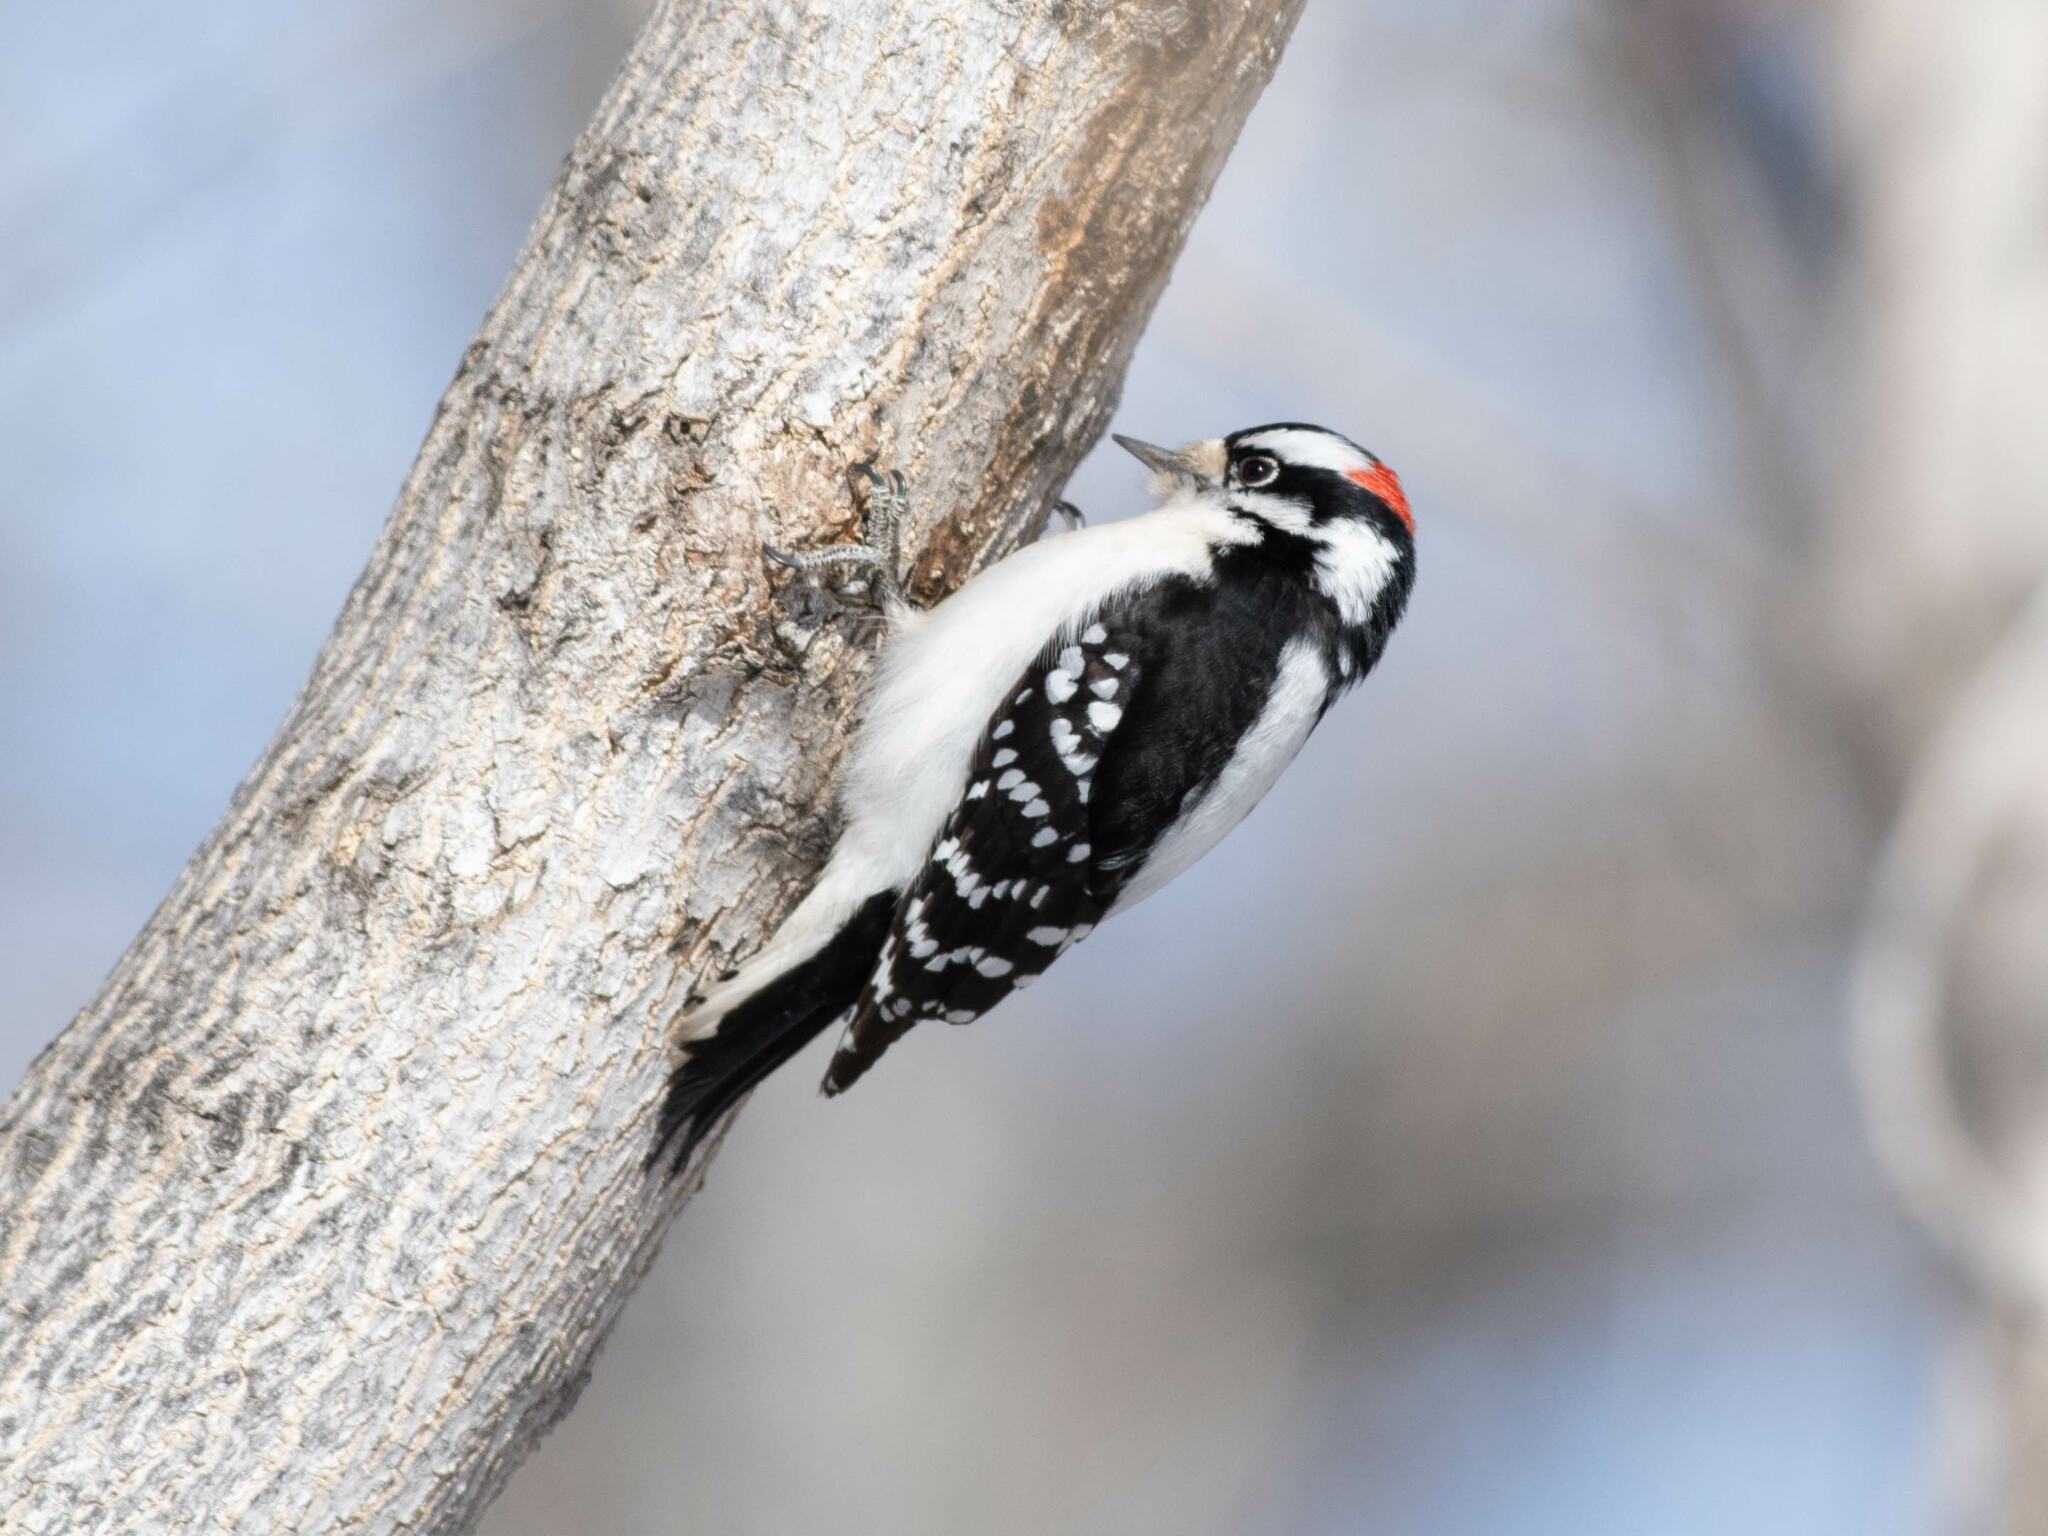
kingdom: Animalia
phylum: Chordata
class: Aves
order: Piciformes
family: Picidae
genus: Dryobates
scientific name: Dryobates pubescens
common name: Downy woodpecker
